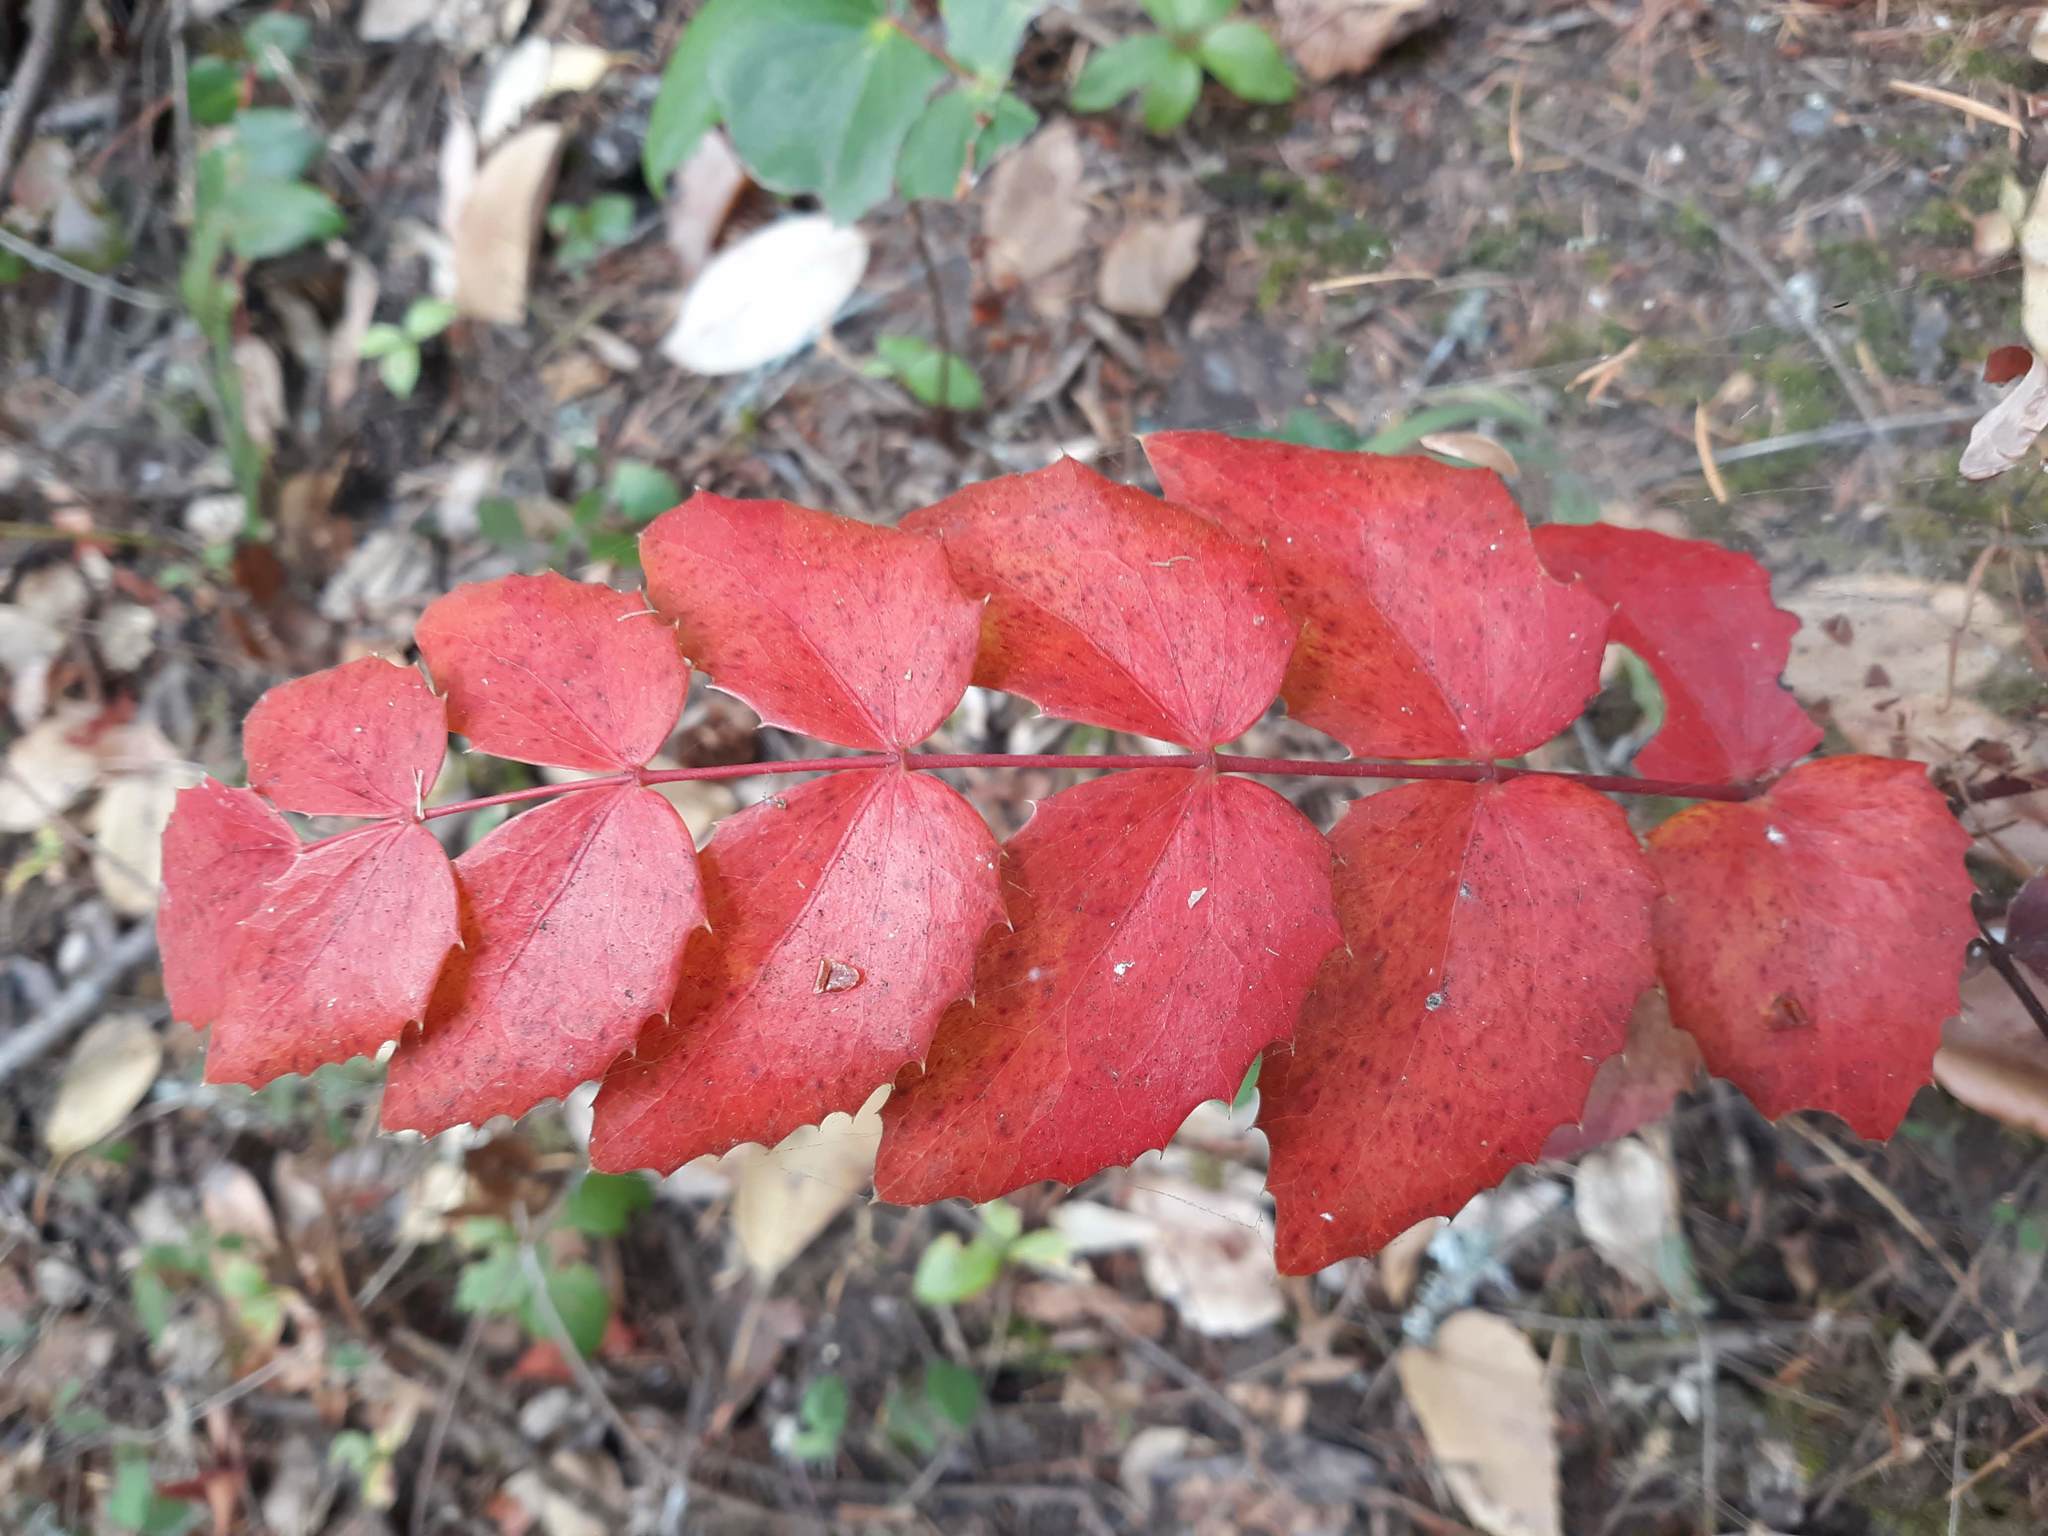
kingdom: Plantae
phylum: Tracheophyta
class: Magnoliopsida
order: Ranunculales
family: Berberidaceae
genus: Mahonia
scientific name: Mahonia nervosa
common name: Cascade oregon-grape
